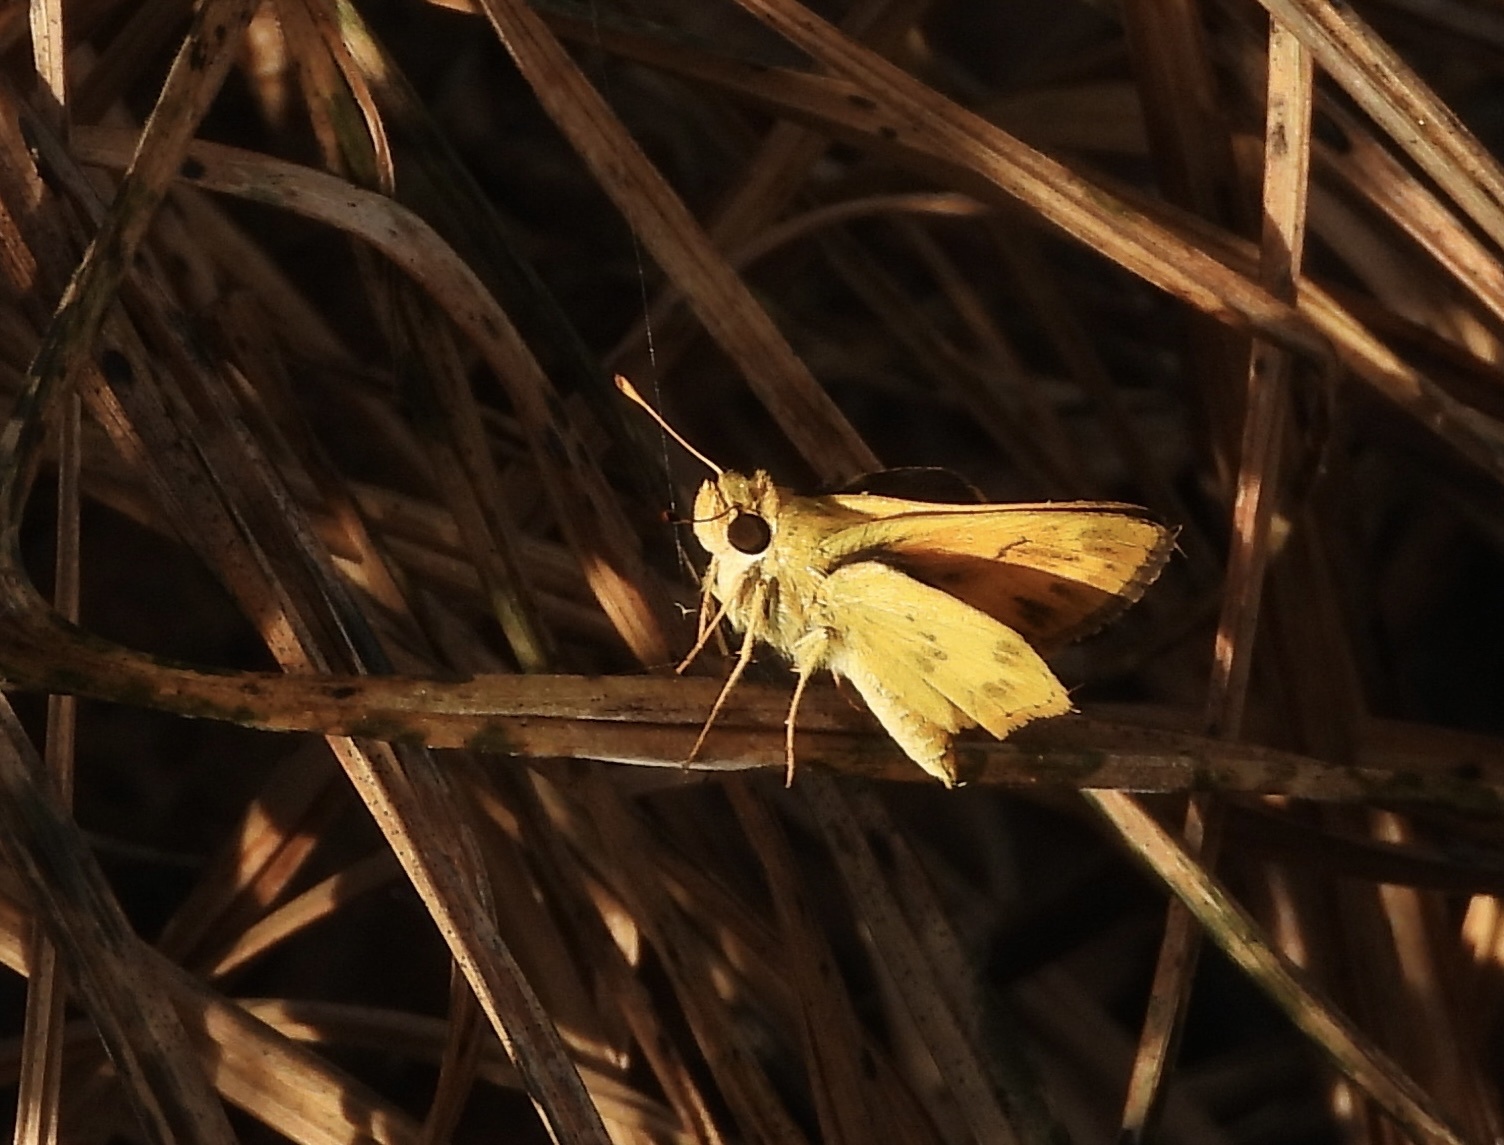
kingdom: Animalia
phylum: Arthropoda
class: Insecta
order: Lepidoptera
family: Hesperiidae
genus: Polites
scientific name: Polites vibex
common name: Whirlabout
